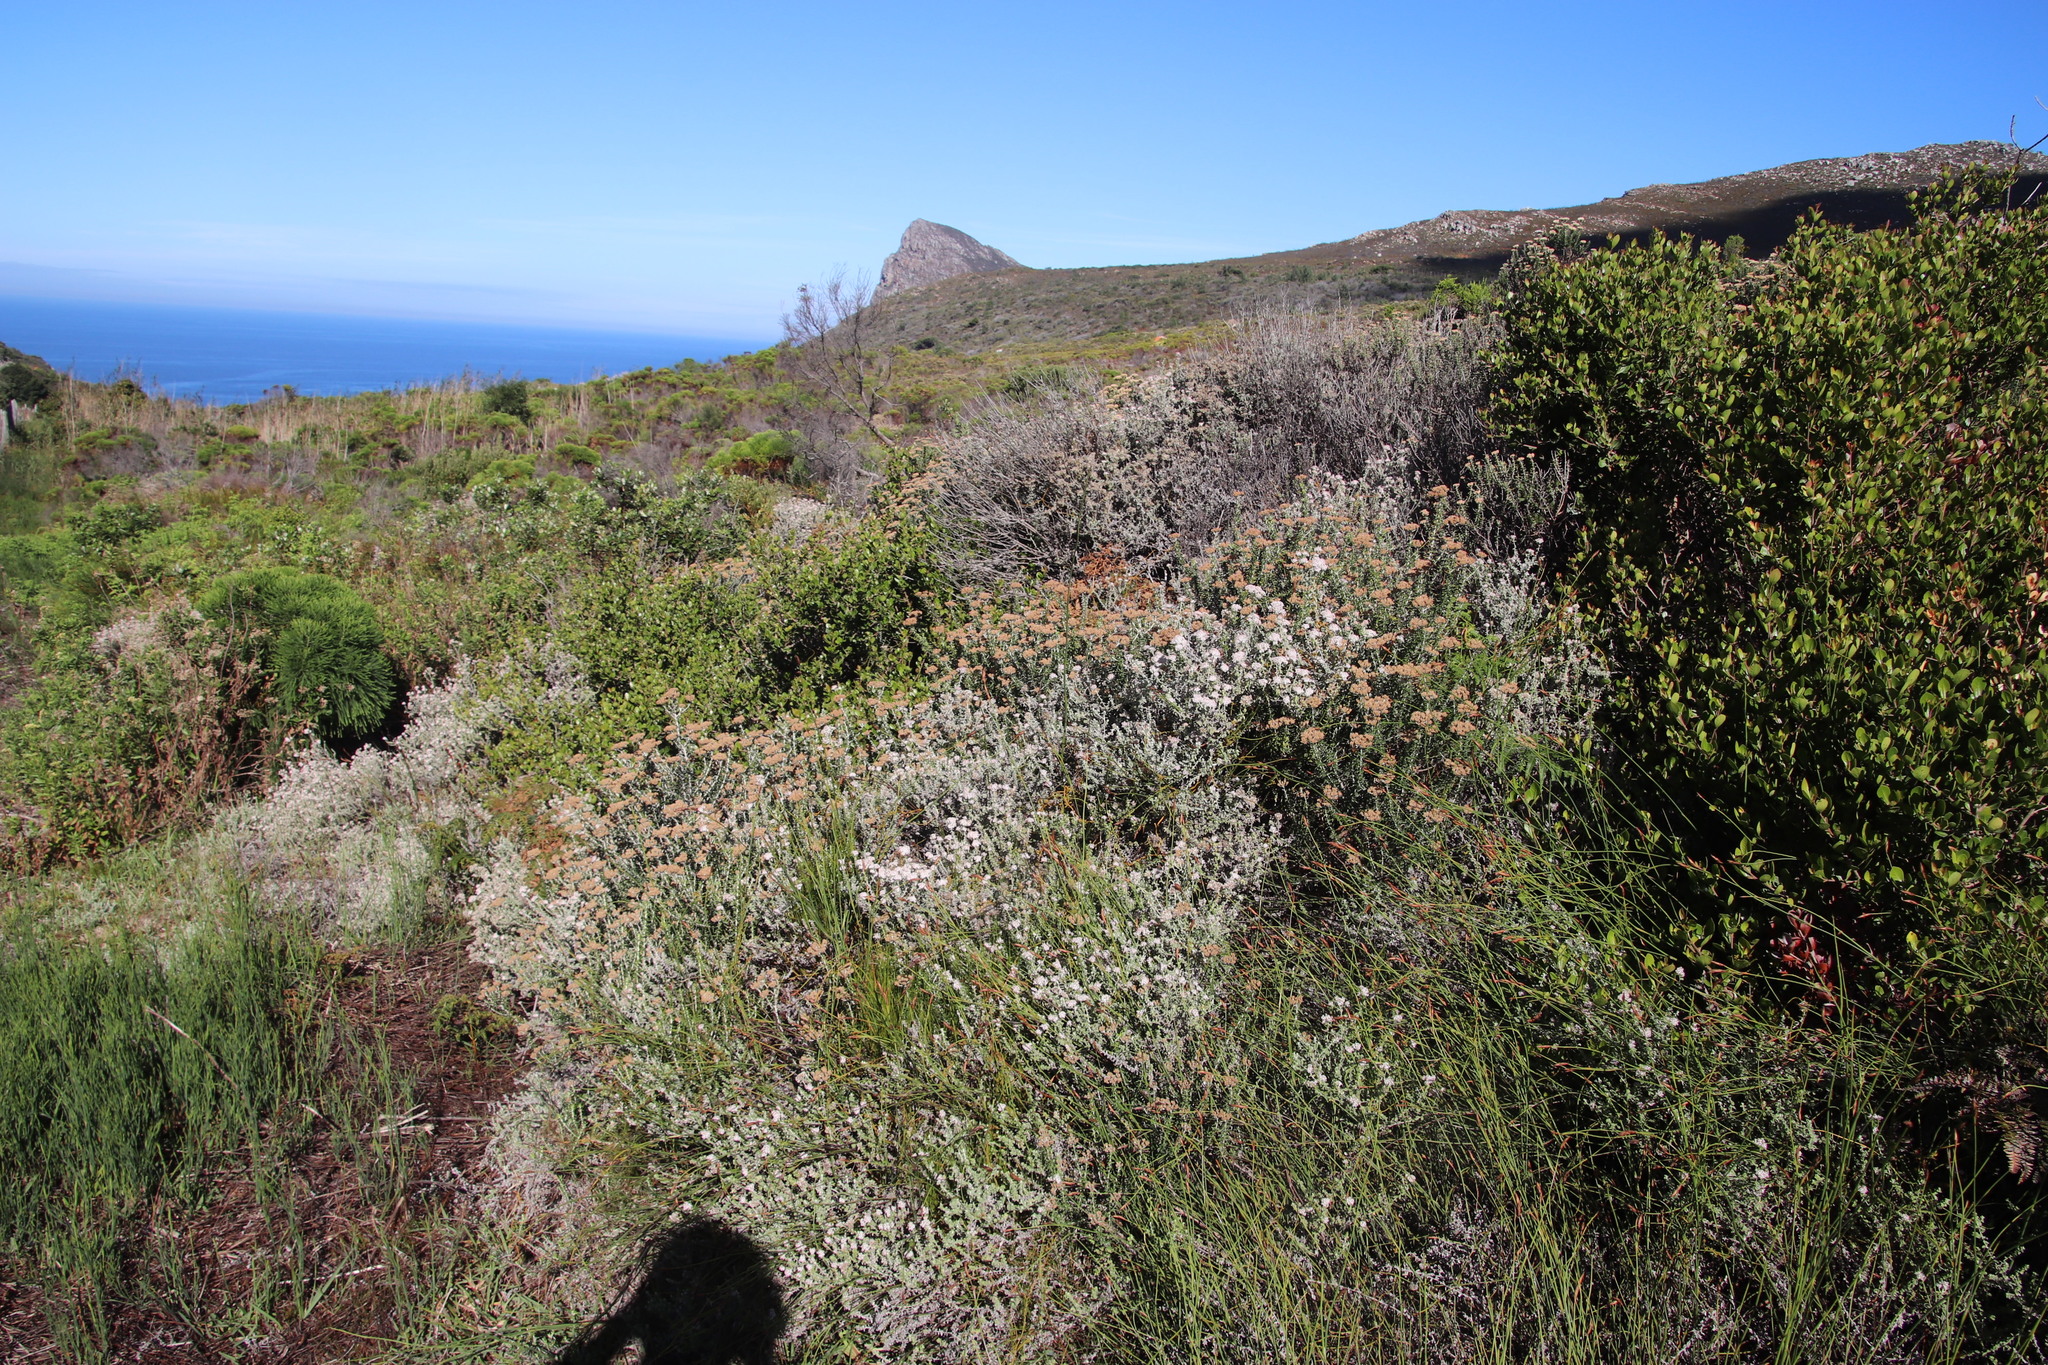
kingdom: Plantae
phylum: Tracheophyta
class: Magnoliopsida
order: Asterales
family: Asteraceae
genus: Plecostachys
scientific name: Plecostachys serpyllifolia
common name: Petite licorice
